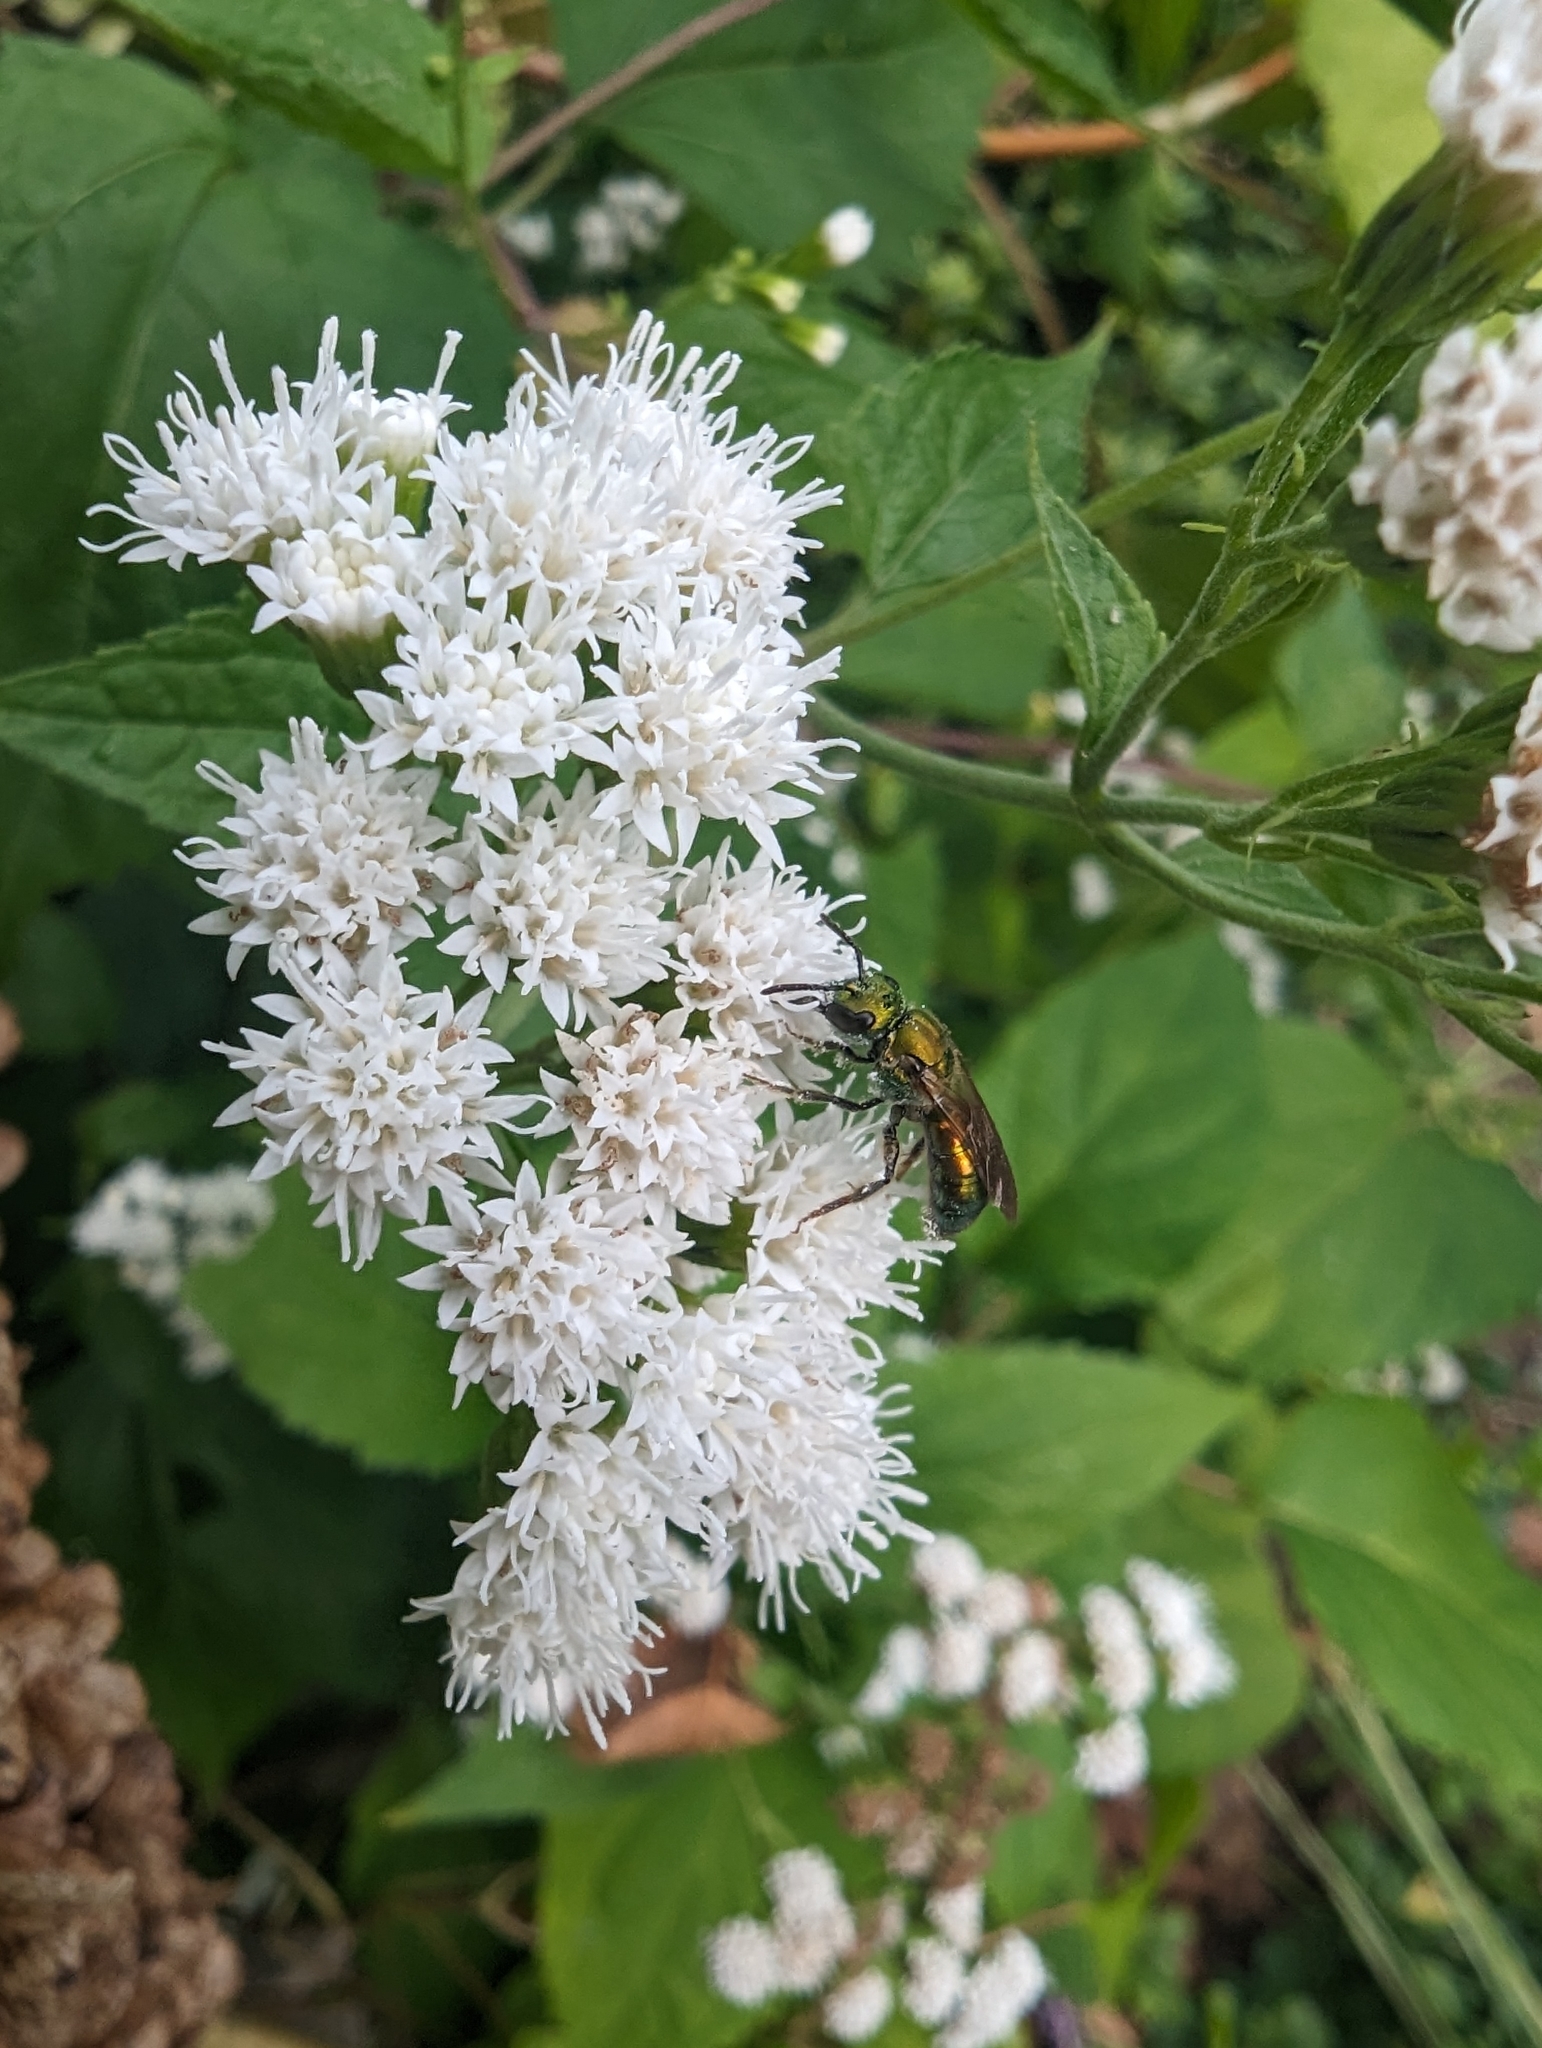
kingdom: Plantae
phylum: Tracheophyta
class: Magnoliopsida
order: Asterales
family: Asteraceae
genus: Ageratina
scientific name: Ageratina altissima
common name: White snakeroot
